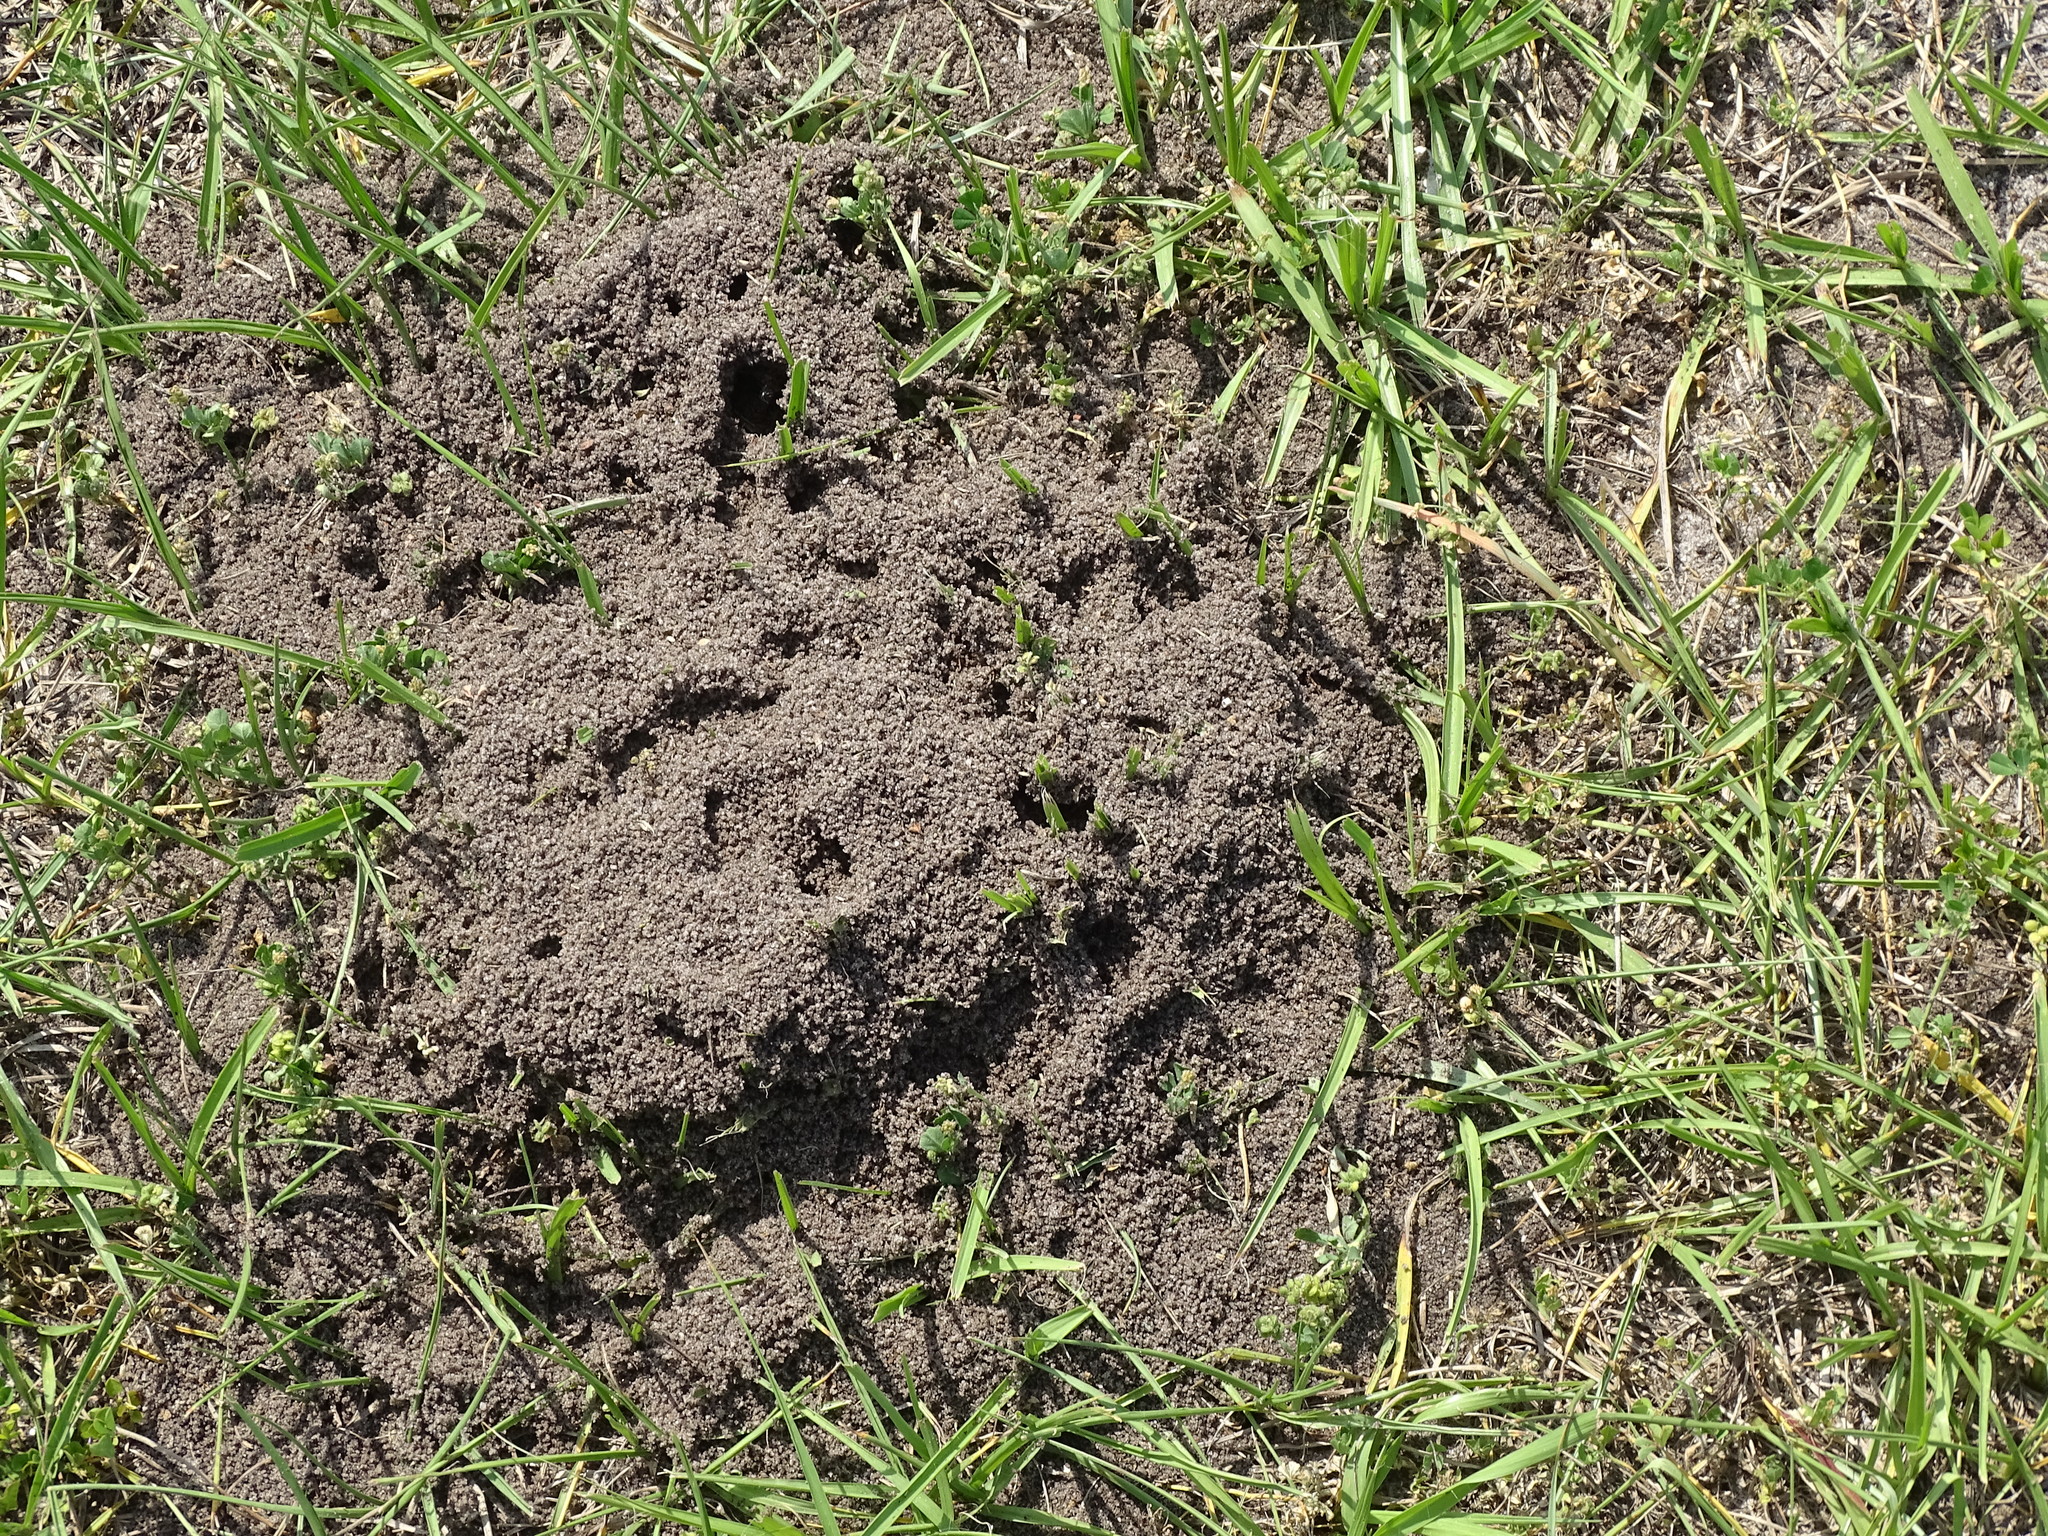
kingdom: Animalia
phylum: Arthropoda
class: Insecta
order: Hymenoptera
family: Formicidae
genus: Solenopsis
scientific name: Solenopsis invicta
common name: Red imported fire ant
